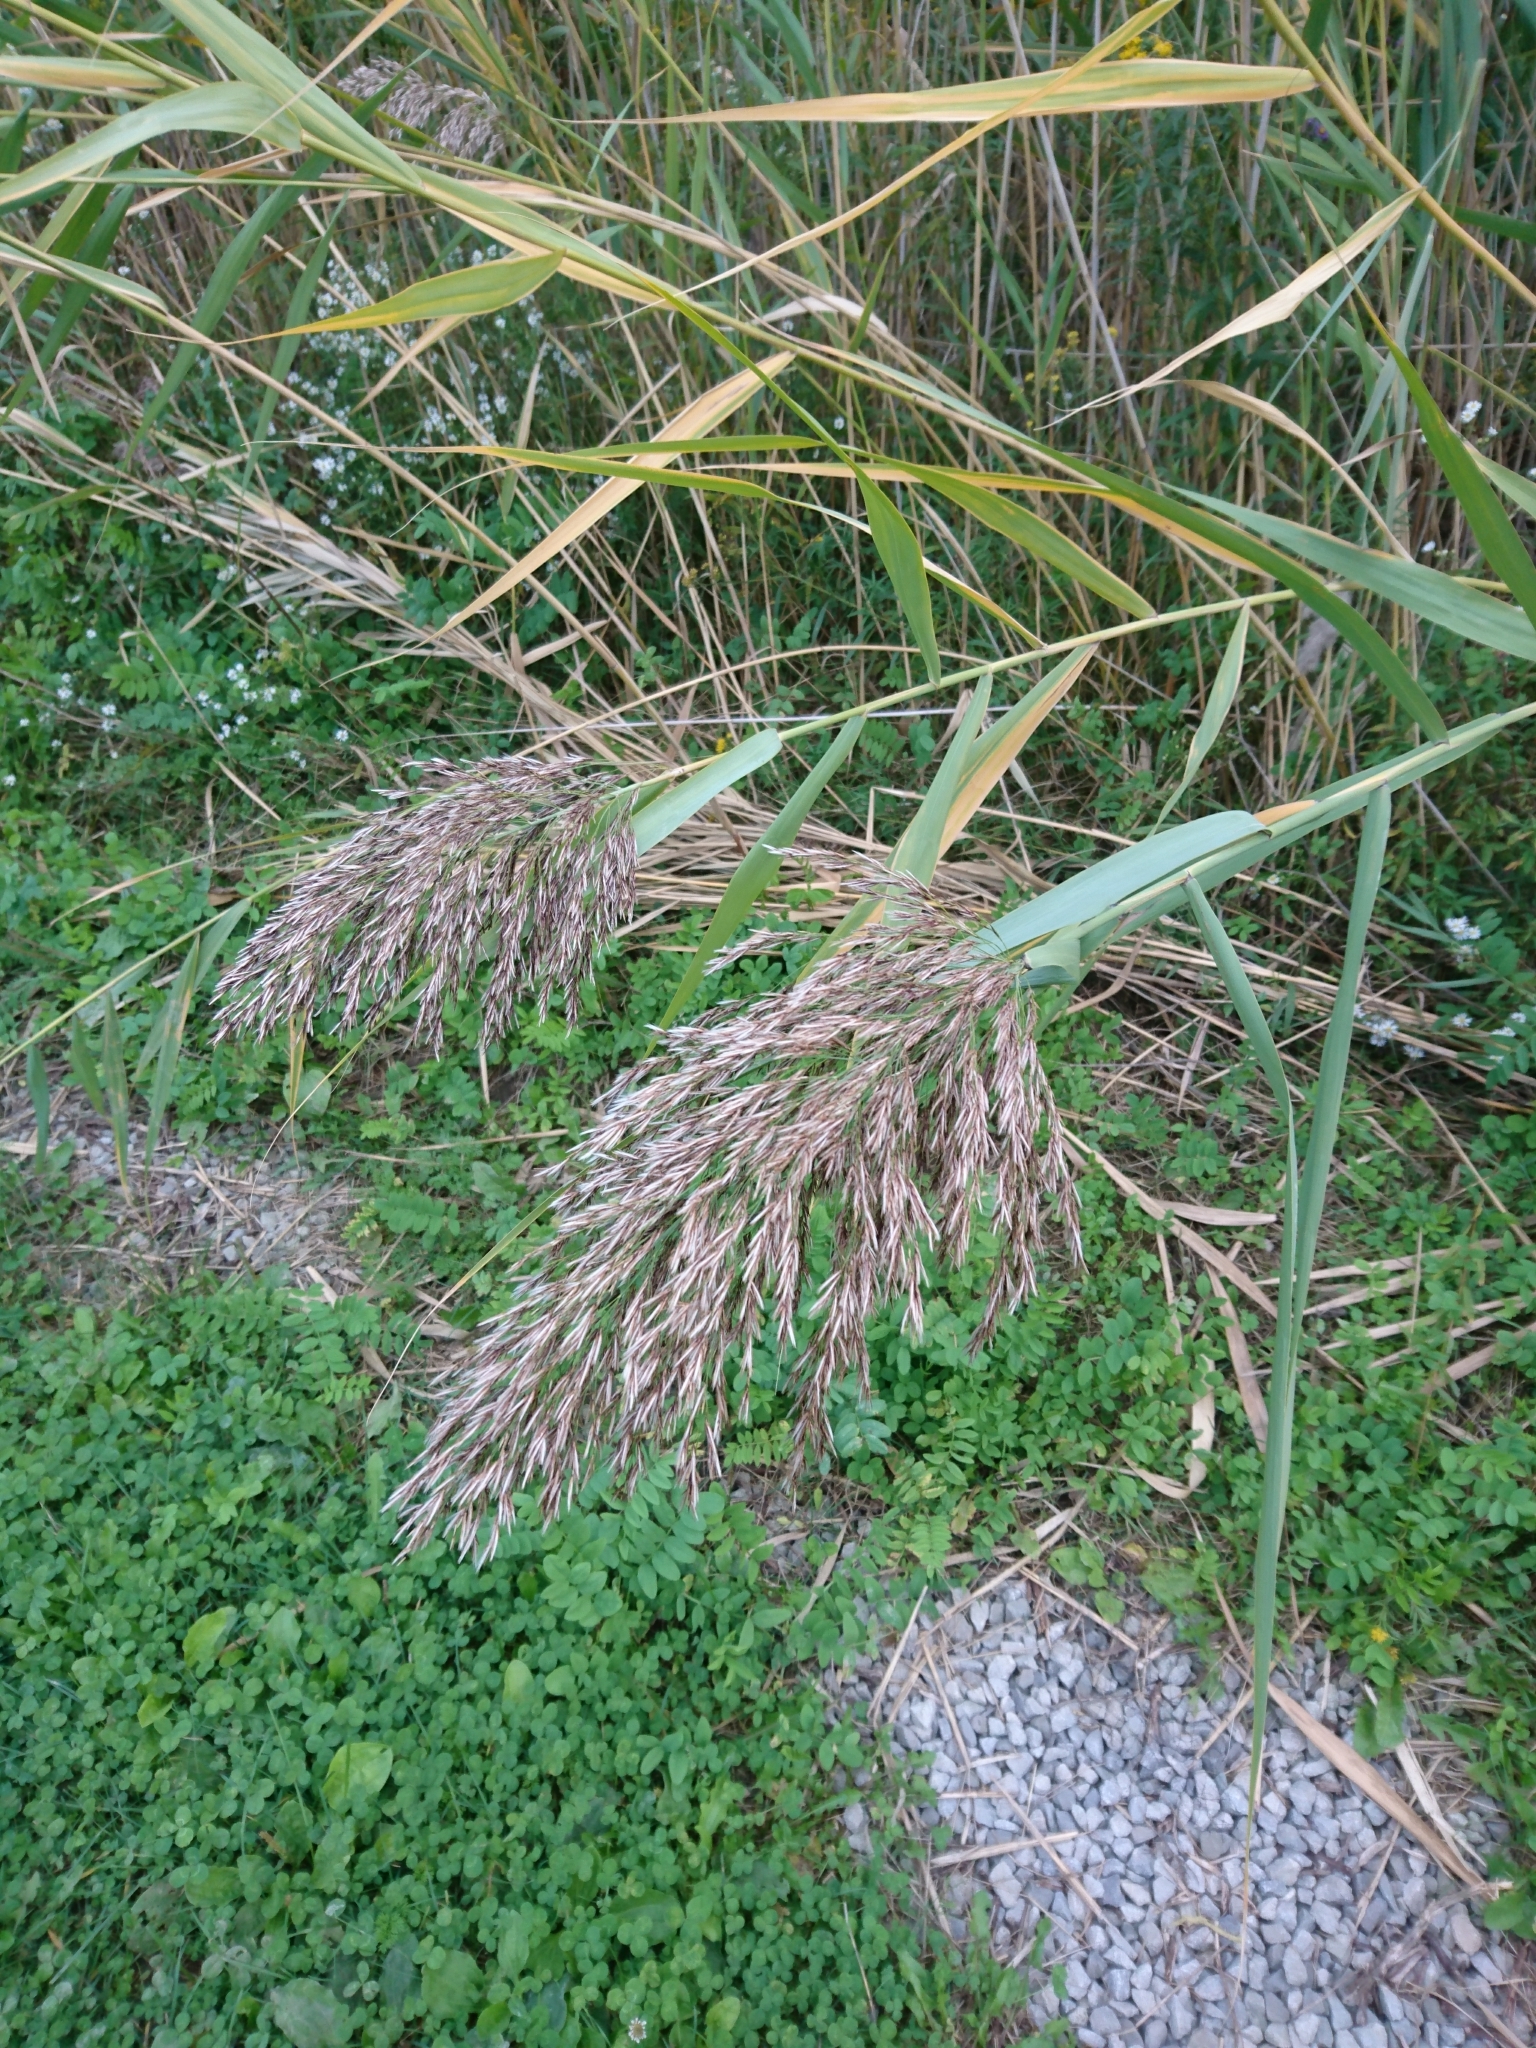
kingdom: Plantae
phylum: Tracheophyta
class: Liliopsida
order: Poales
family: Poaceae
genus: Phragmites
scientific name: Phragmites australis
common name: Common reed
